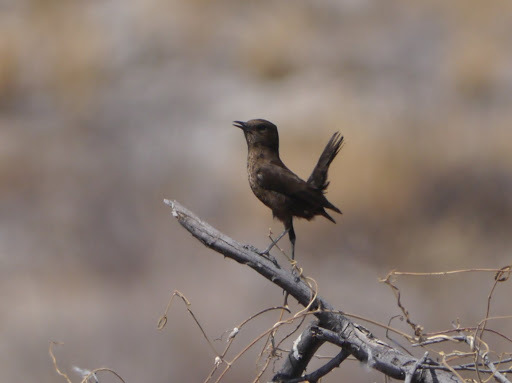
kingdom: Animalia
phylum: Chordata
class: Aves
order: Passeriformes
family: Muscicapidae
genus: Myrmecocichla
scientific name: Myrmecocichla formicivora
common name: Ant-eating chat
